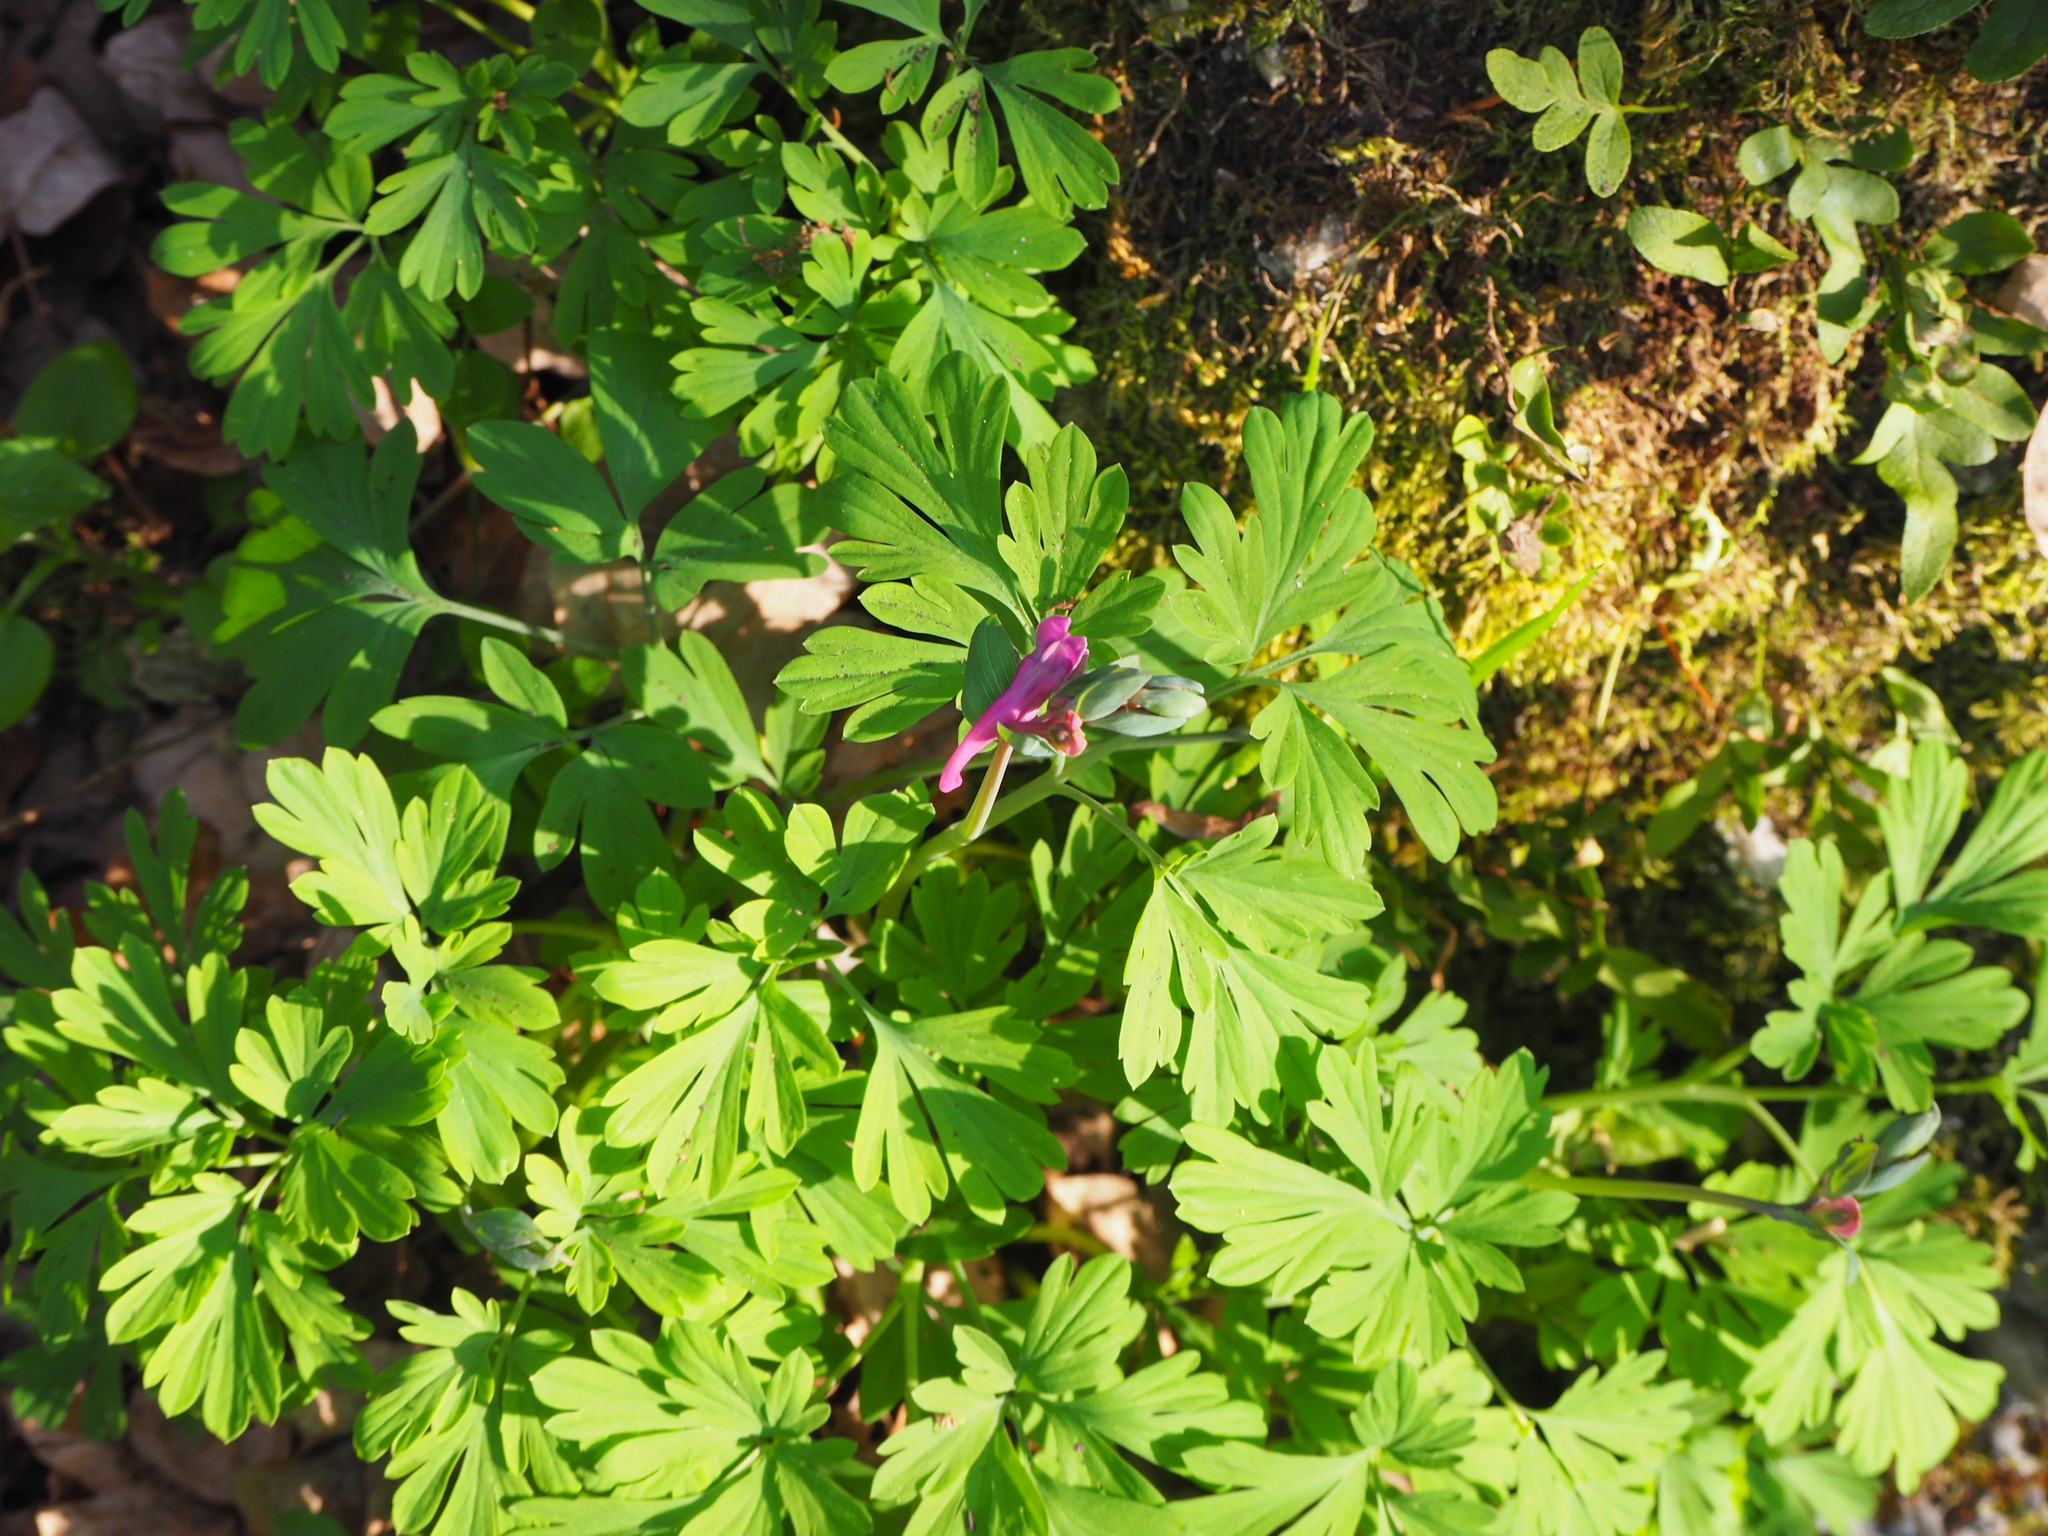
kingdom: Plantae
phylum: Tracheophyta
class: Magnoliopsida
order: Ranunculales
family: Papaveraceae
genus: Corydalis
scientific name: Corydalis cava
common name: Hollowroot
